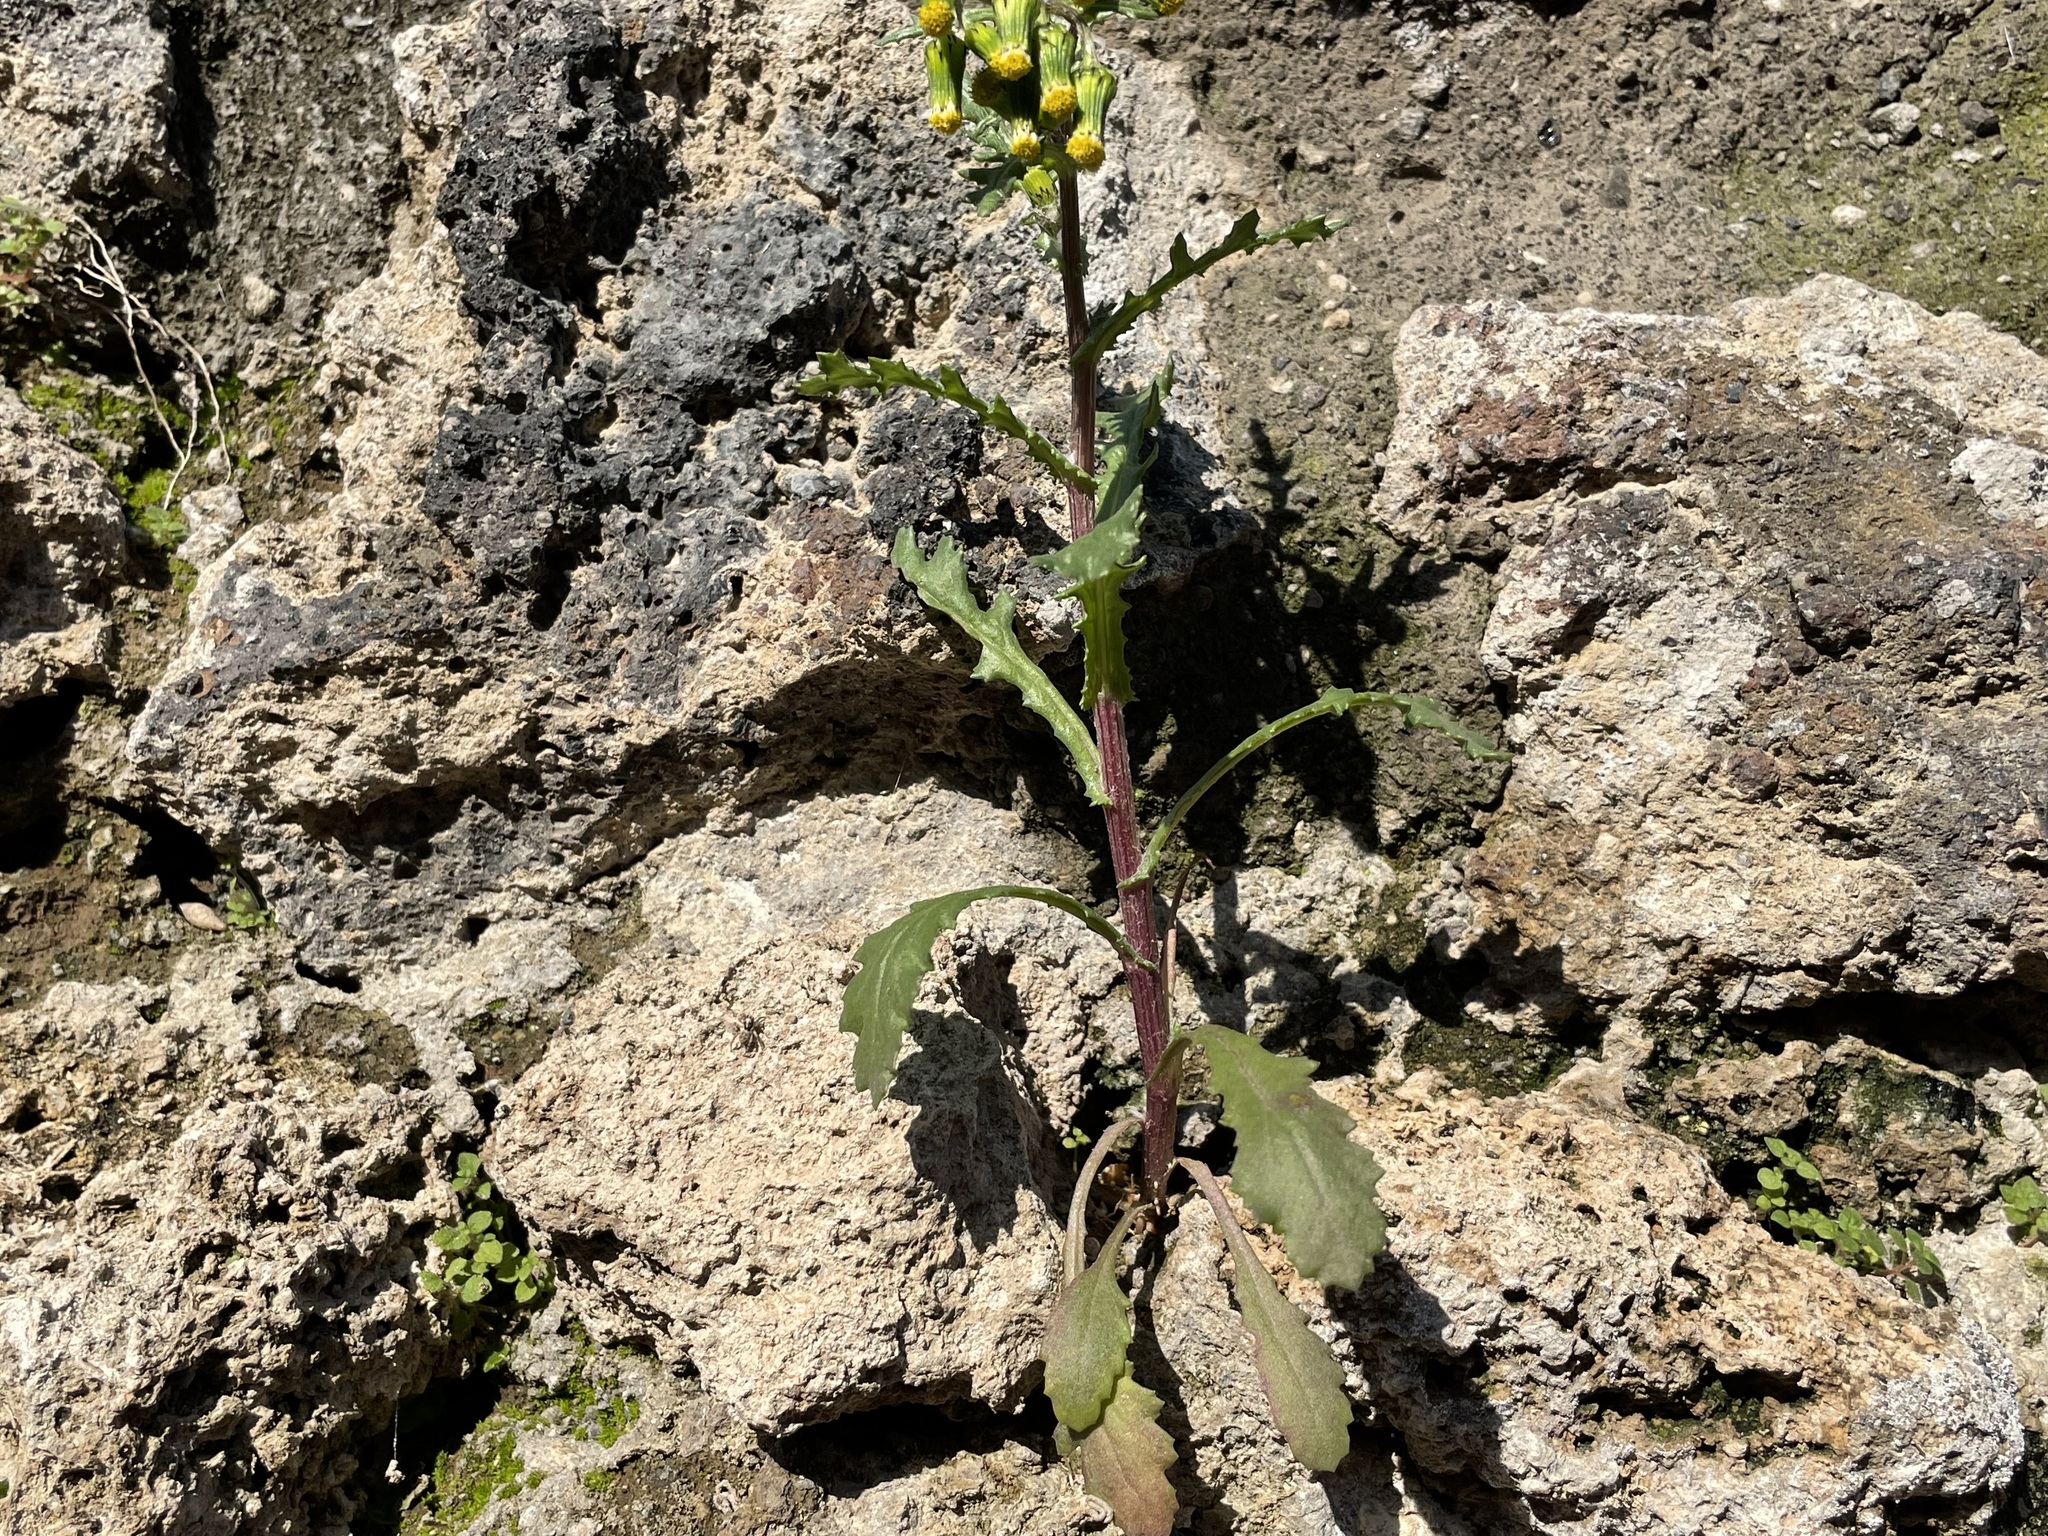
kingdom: Plantae
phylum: Tracheophyta
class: Magnoliopsida
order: Asterales
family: Asteraceae
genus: Senecio
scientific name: Senecio vulgaris
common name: Old-man-in-the-spring
